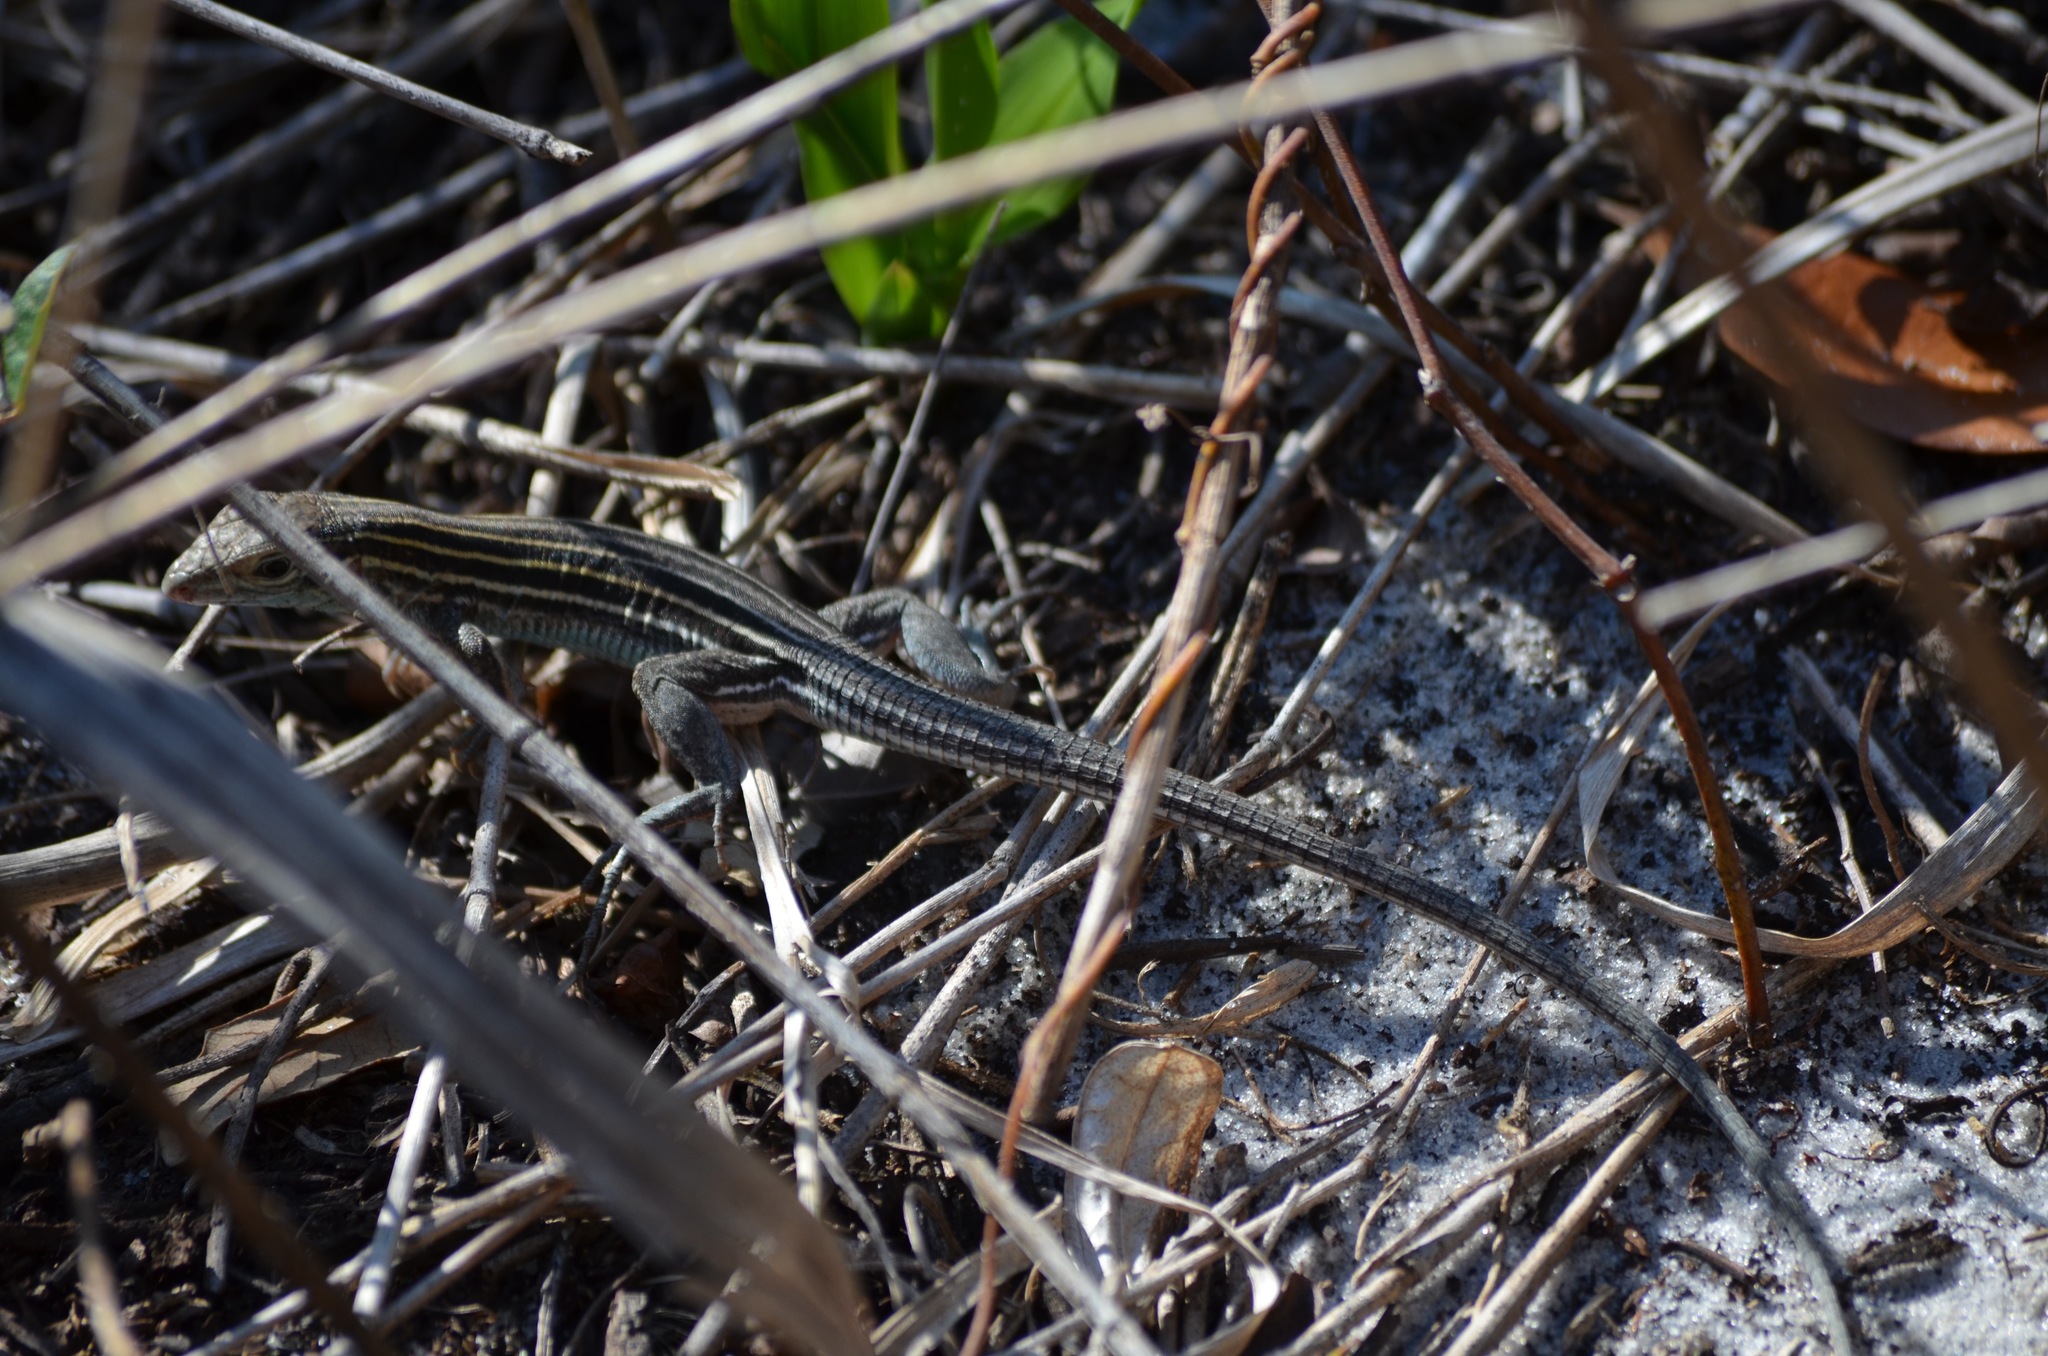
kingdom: Animalia
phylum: Chordata
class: Squamata
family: Teiidae
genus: Aspidoscelis
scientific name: Aspidoscelis sexlineatus
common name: Six-lined racerunner
